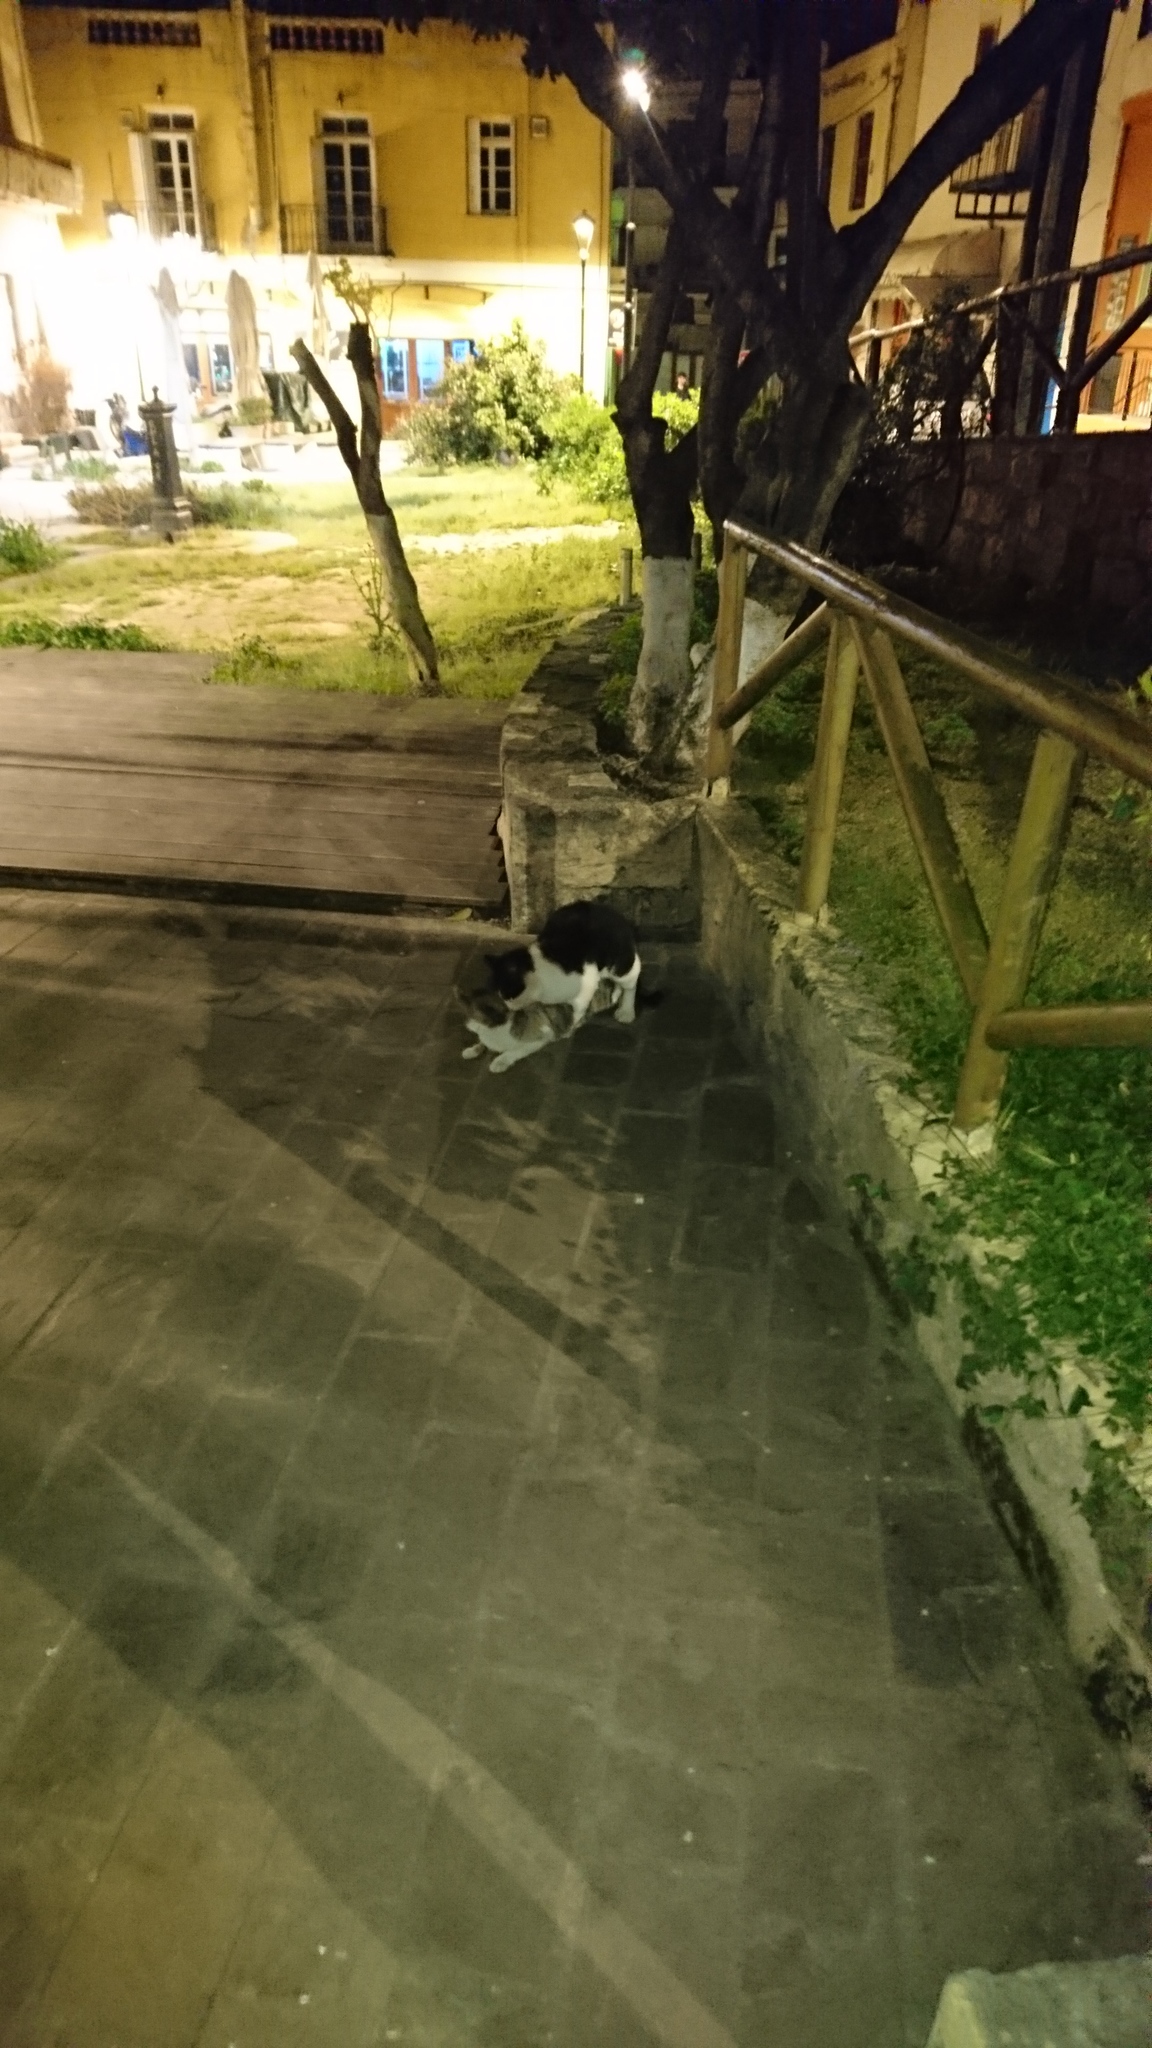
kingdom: Animalia
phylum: Chordata
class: Mammalia
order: Carnivora
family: Felidae
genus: Felis
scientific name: Felis catus
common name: Domestic cat
